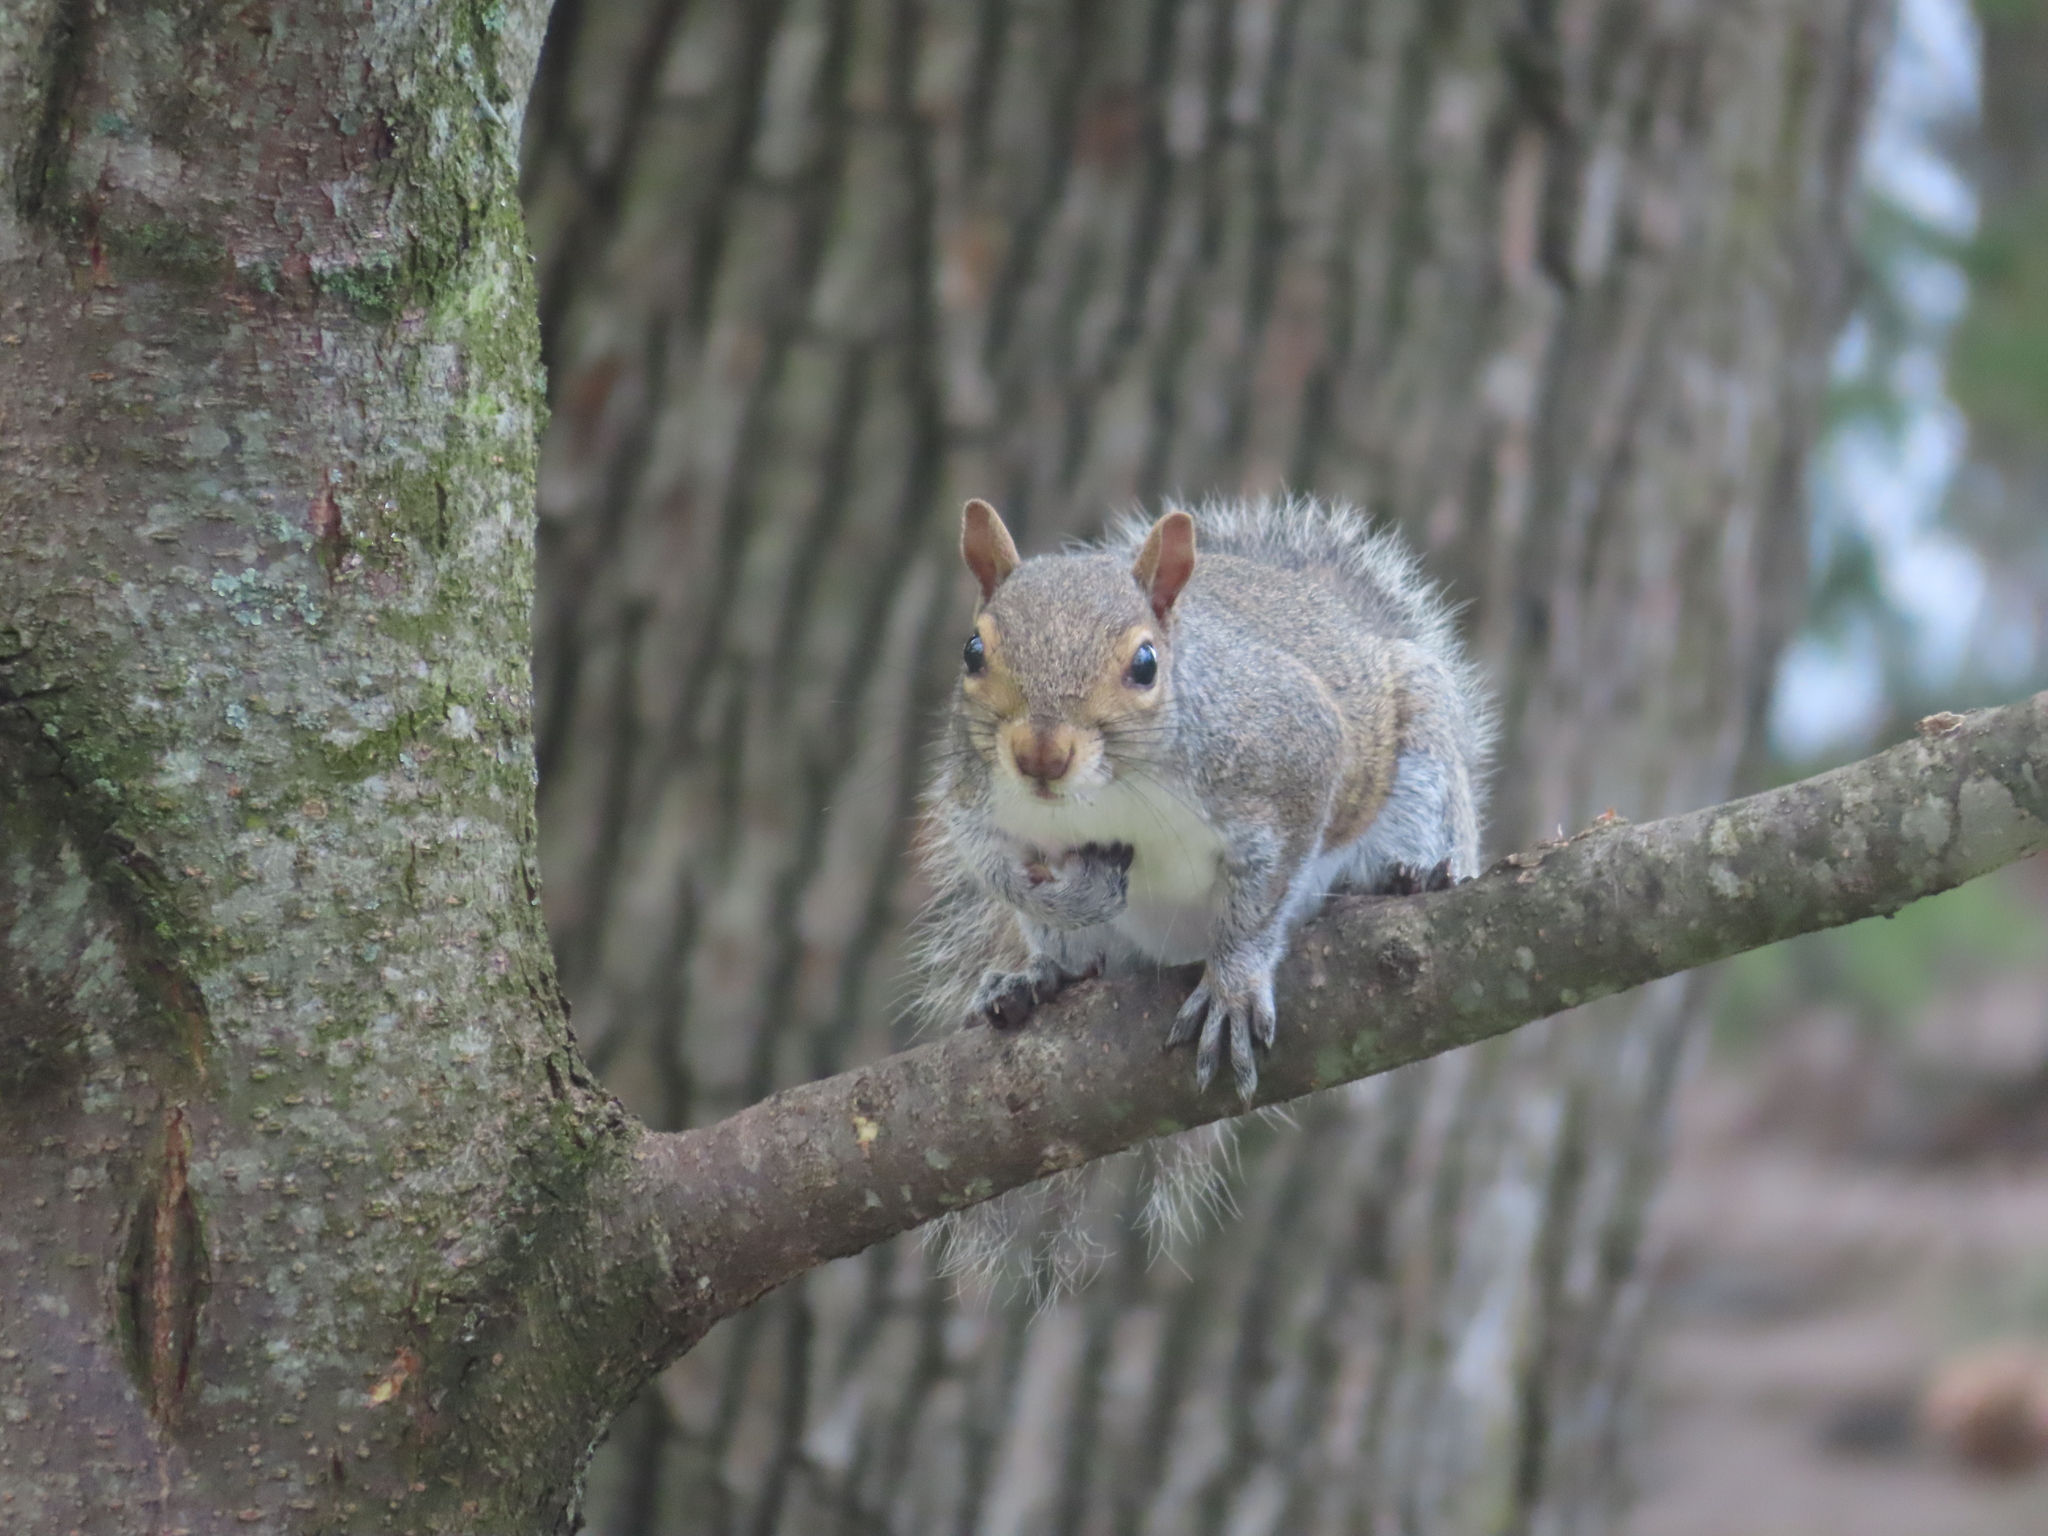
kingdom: Animalia
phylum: Chordata
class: Mammalia
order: Rodentia
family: Sciuridae
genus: Sciurus
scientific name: Sciurus carolinensis
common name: Eastern gray squirrel
